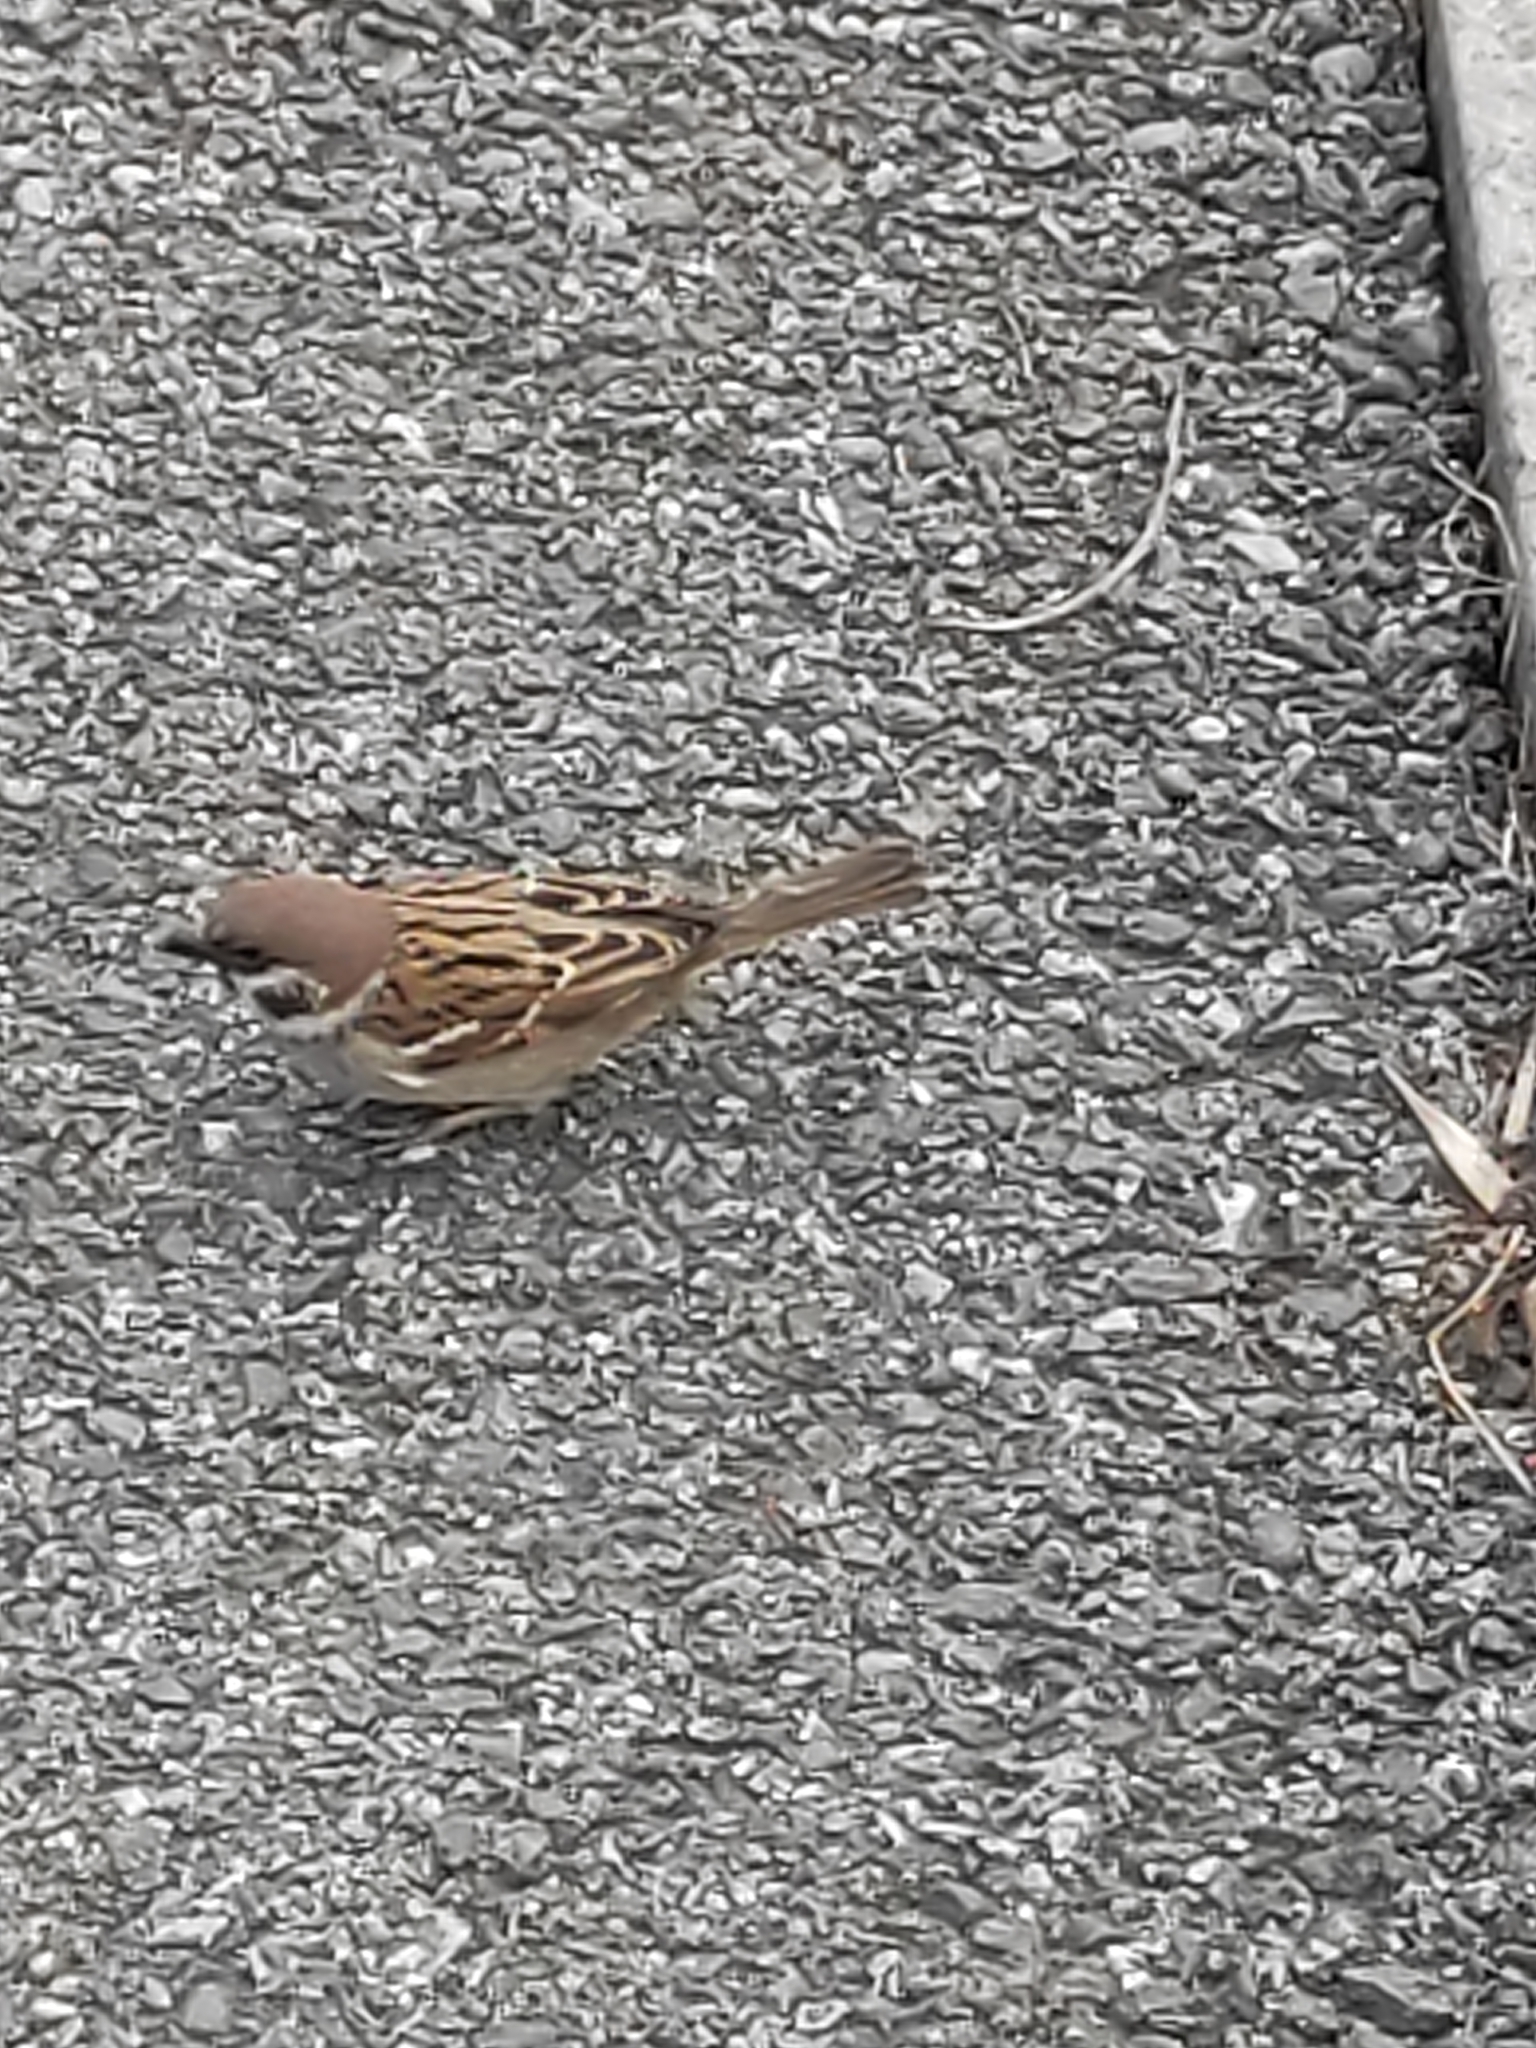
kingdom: Animalia
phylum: Chordata
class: Aves
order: Passeriformes
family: Passeridae
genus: Passer
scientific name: Passer montanus
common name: Eurasian tree sparrow
